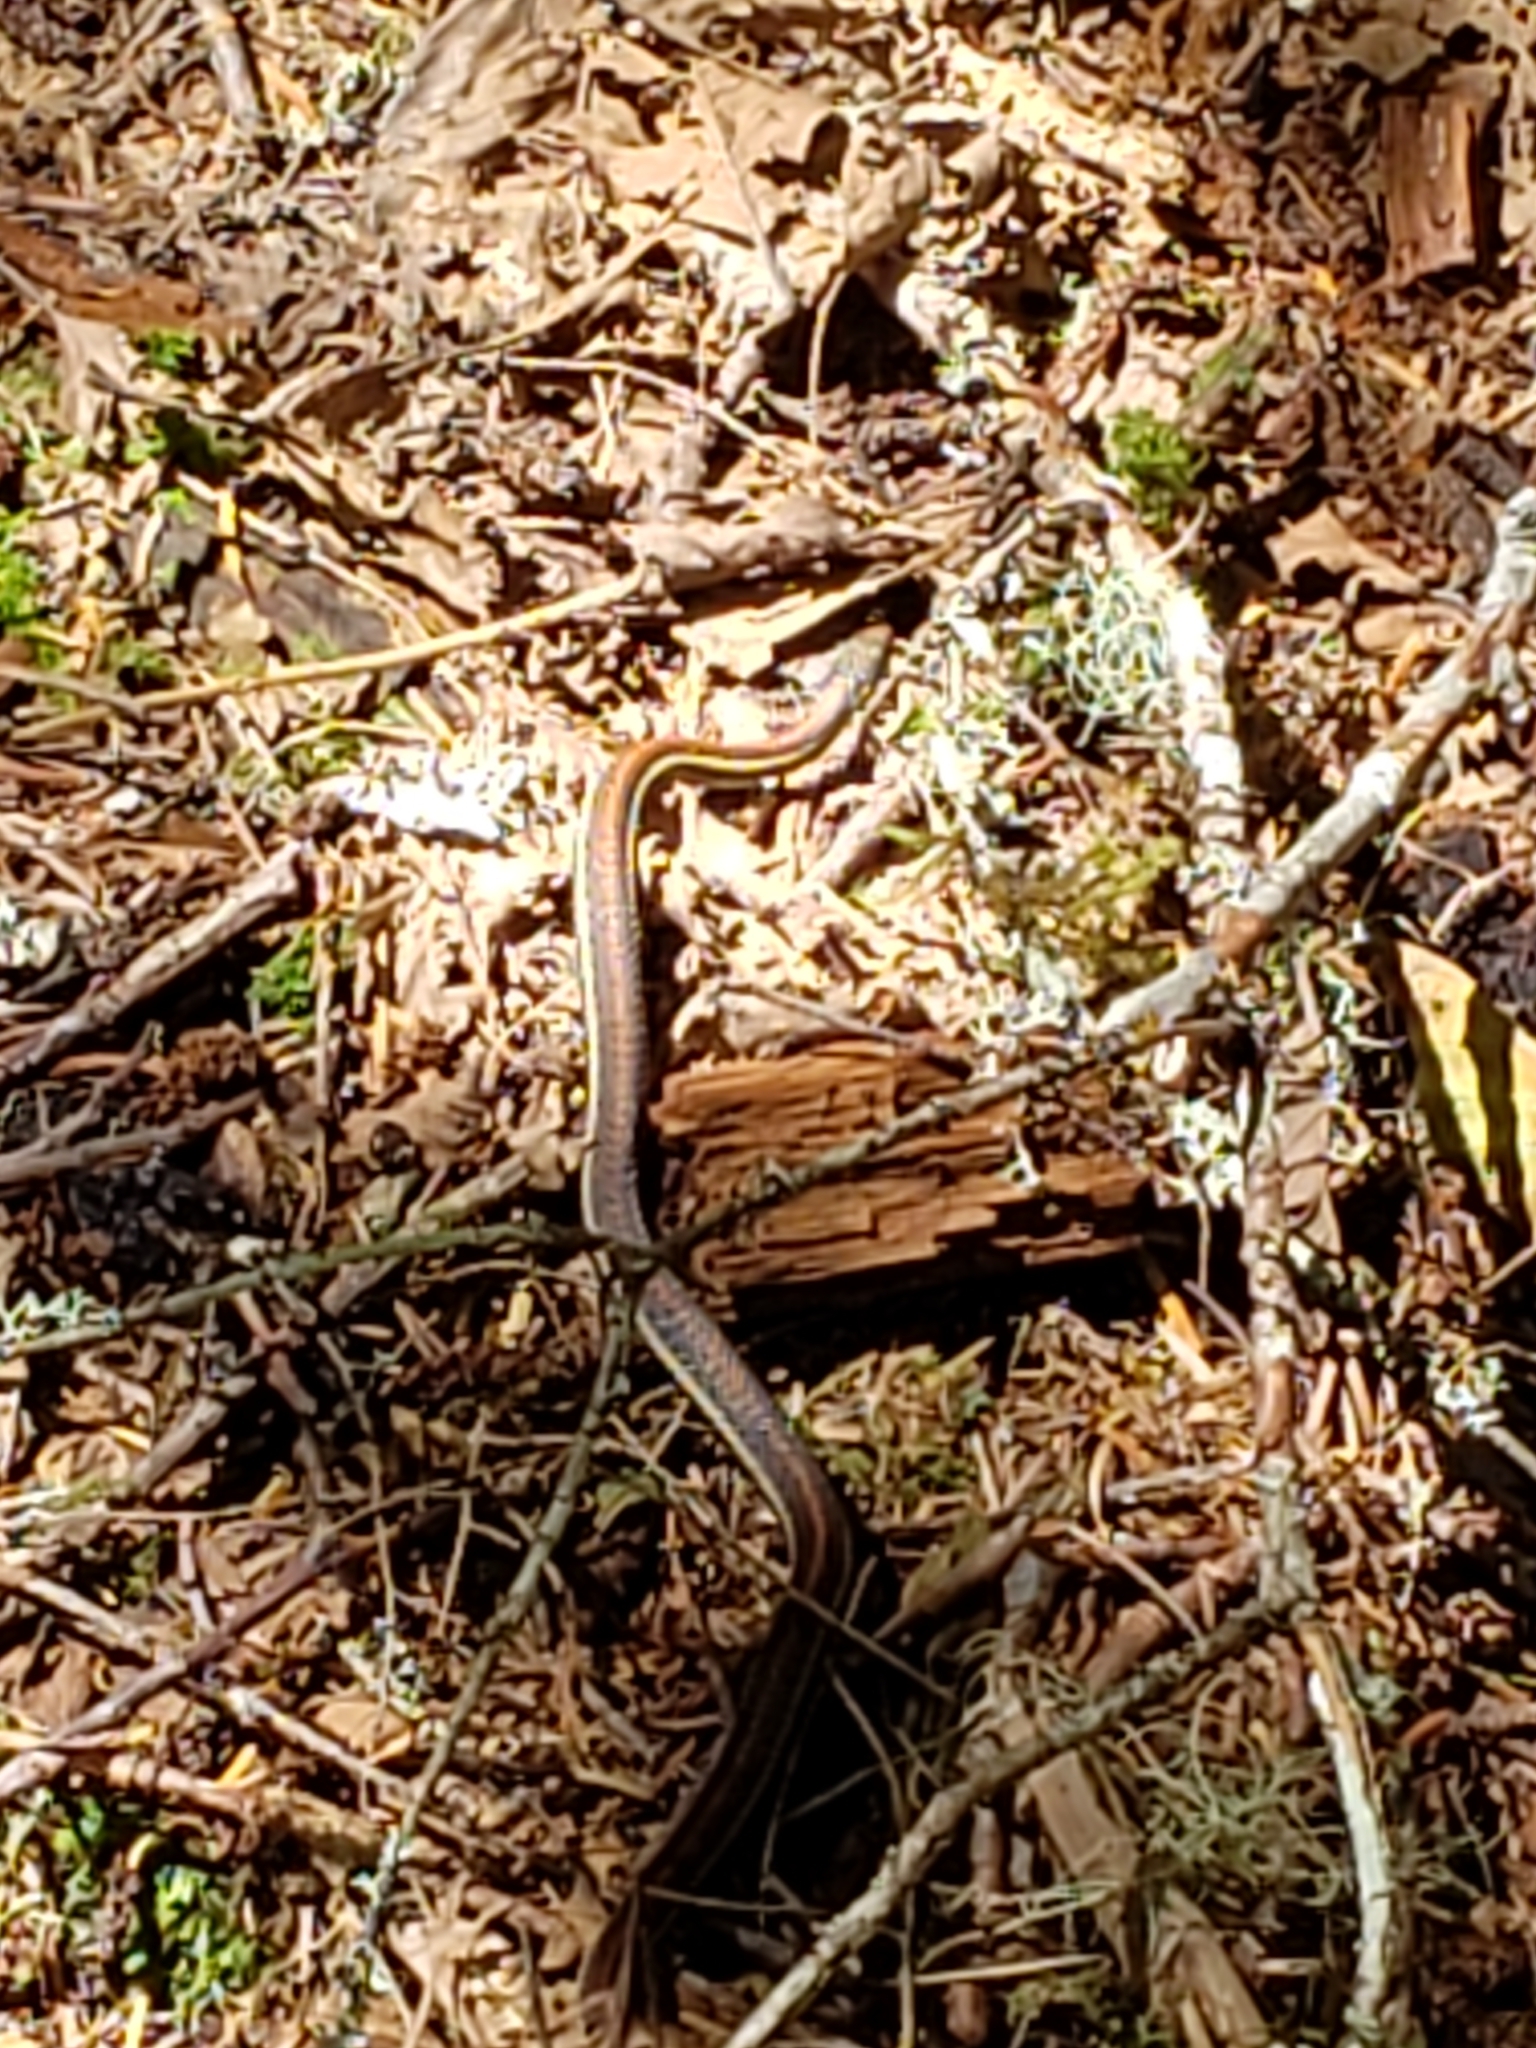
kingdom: Animalia
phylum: Chordata
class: Squamata
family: Colubridae
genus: Thamnophis
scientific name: Thamnophis ordinoides
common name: Northwestern garter snake
